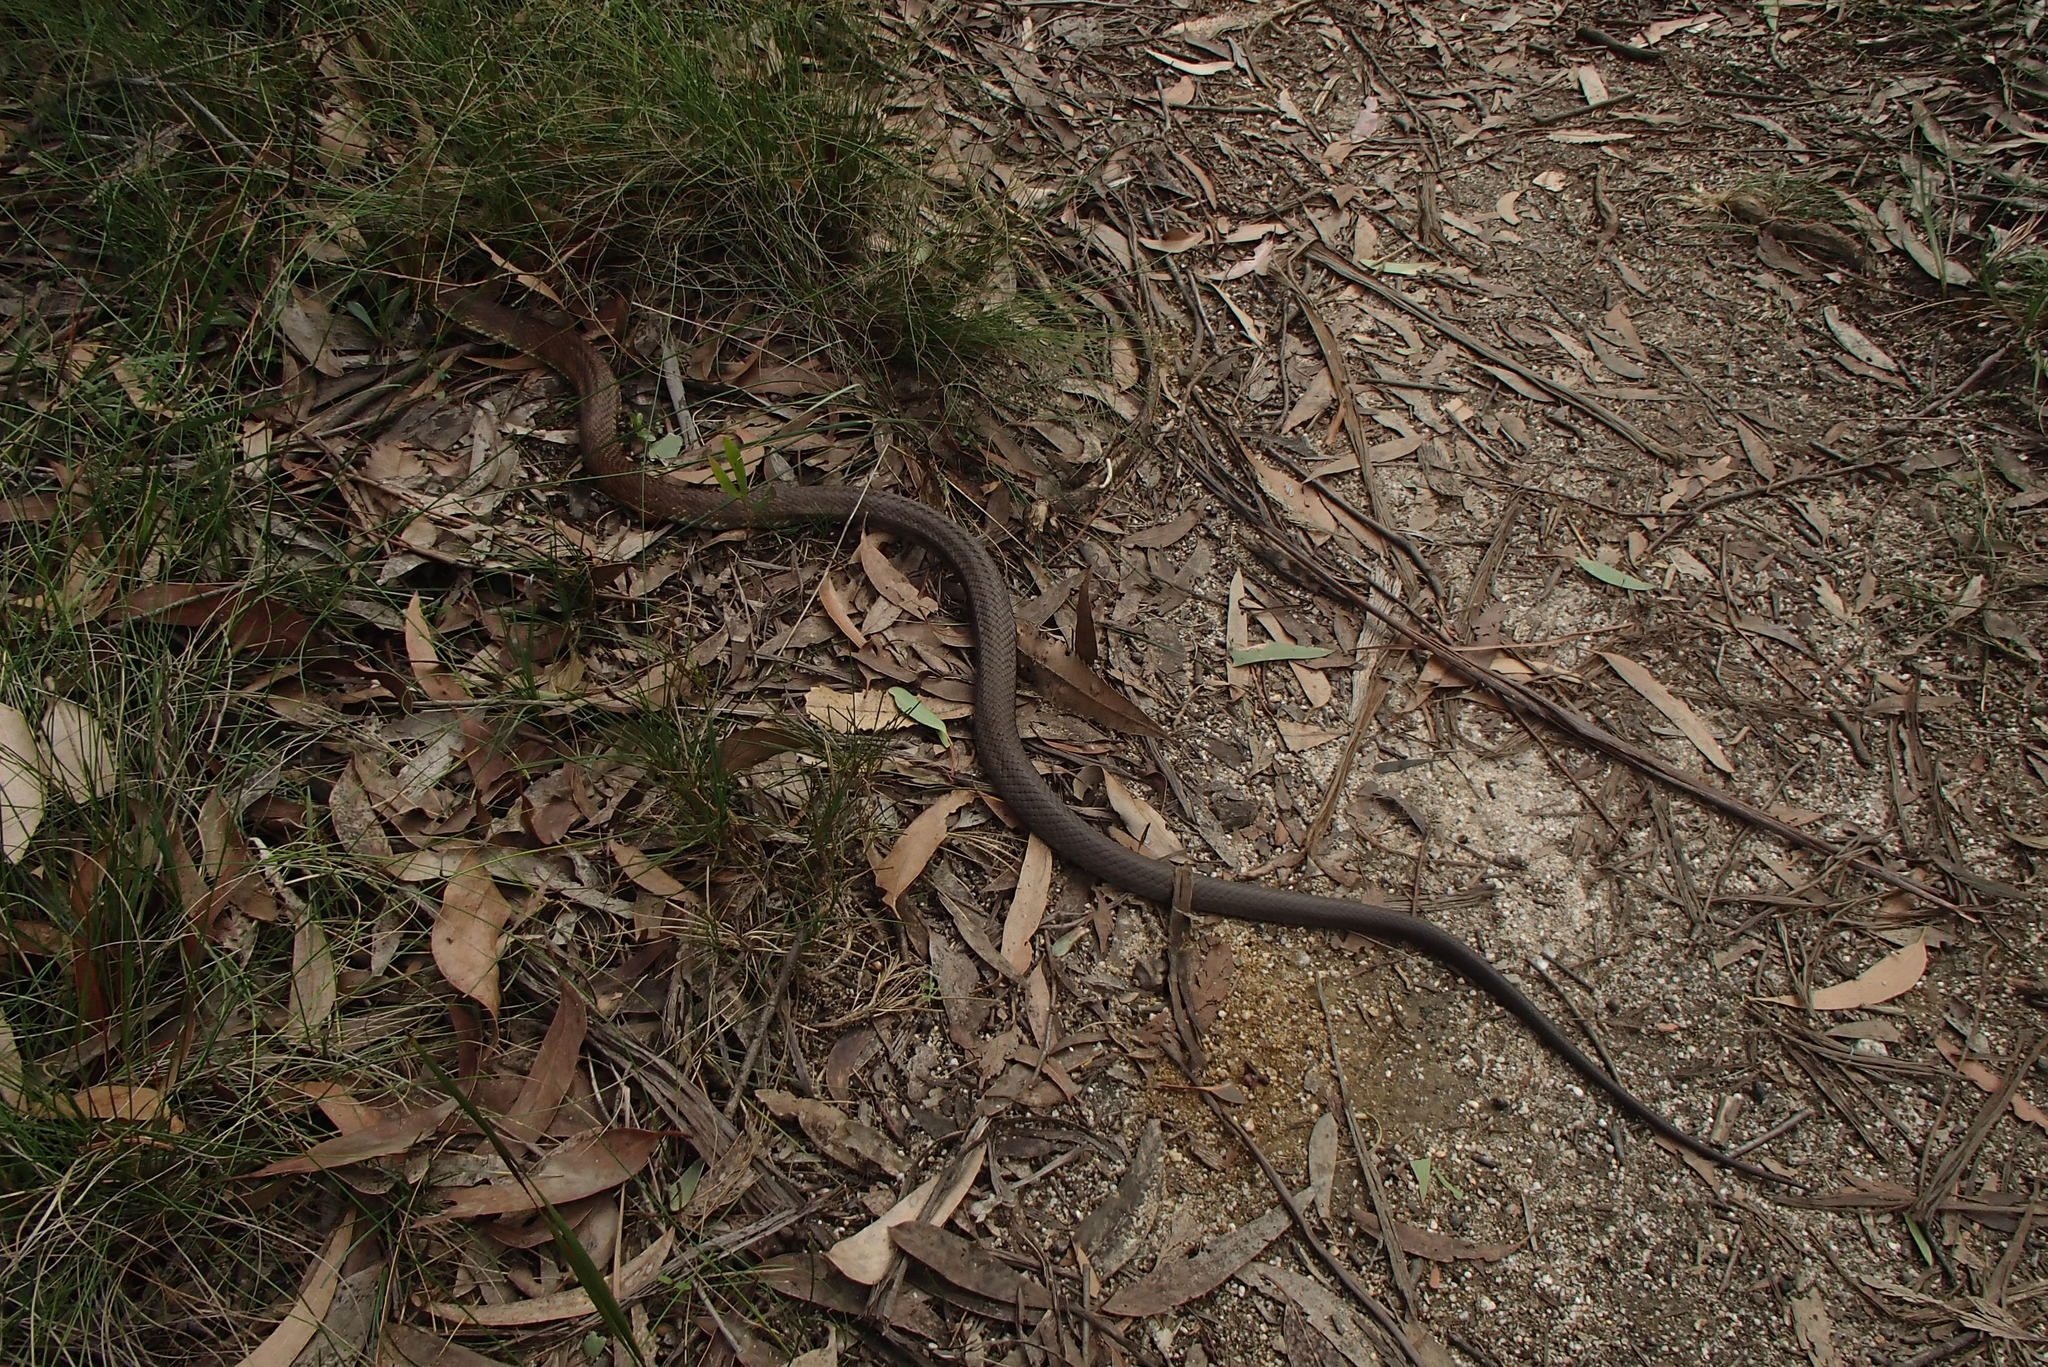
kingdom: Animalia
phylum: Chordata
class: Squamata
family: Elapidae
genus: Notechis
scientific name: Notechis scutatus
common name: Mainland tiger snake
